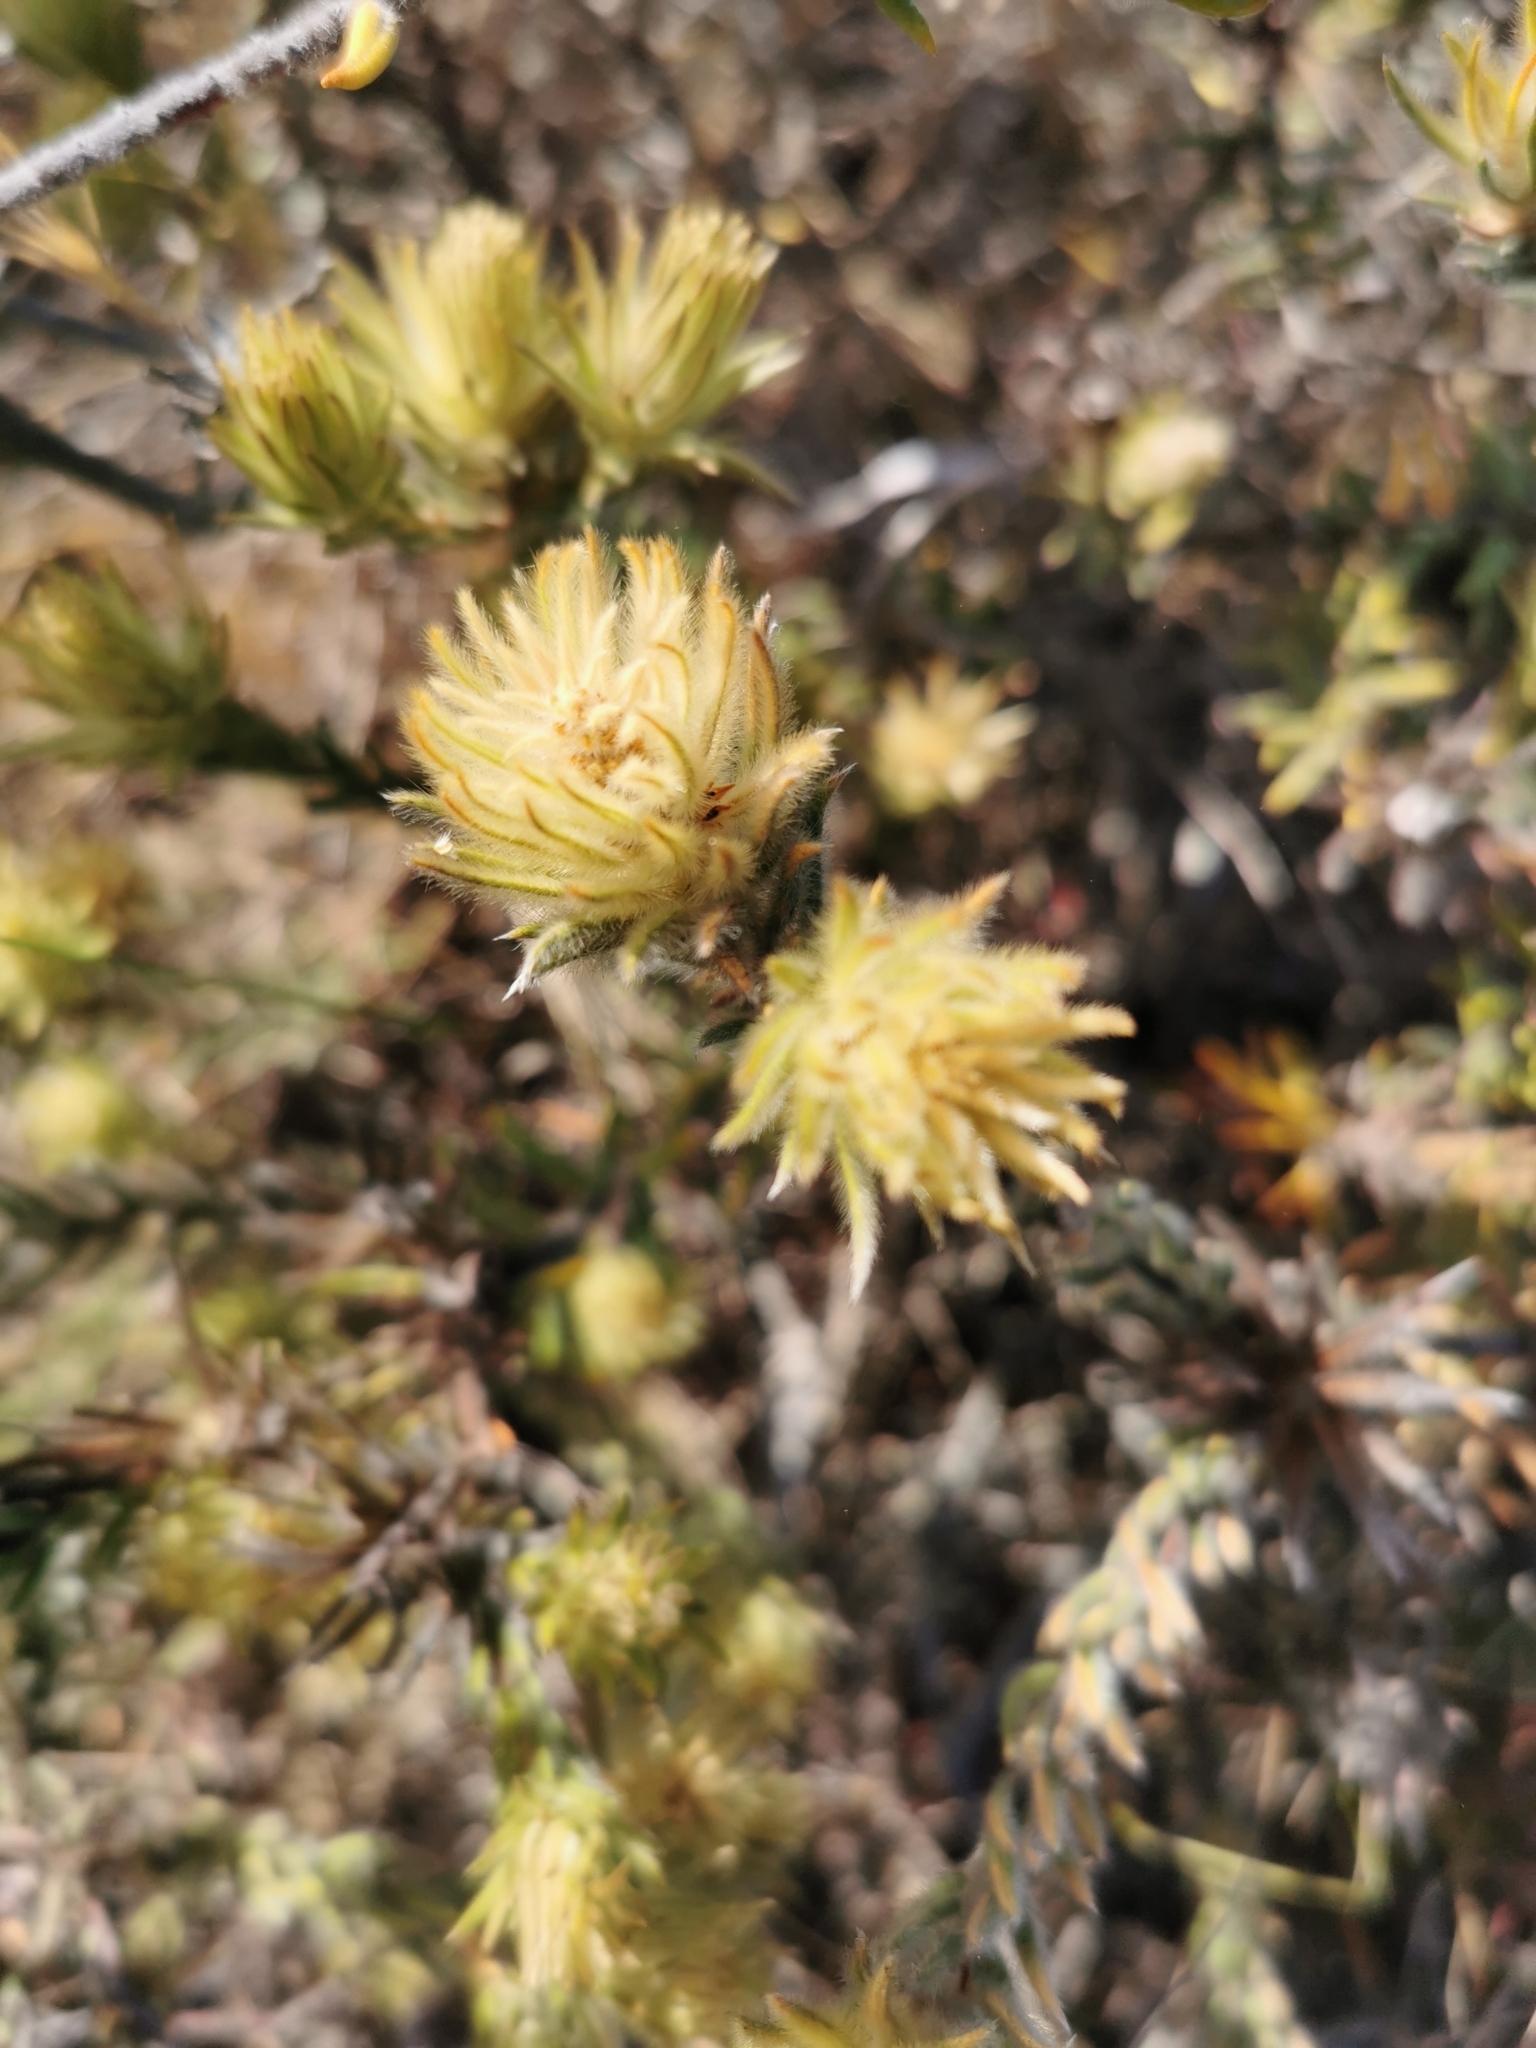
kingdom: Plantae
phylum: Tracheophyta
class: Magnoliopsida
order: Rosales
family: Rhamnaceae
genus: Phylica
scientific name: Phylica plumosa
